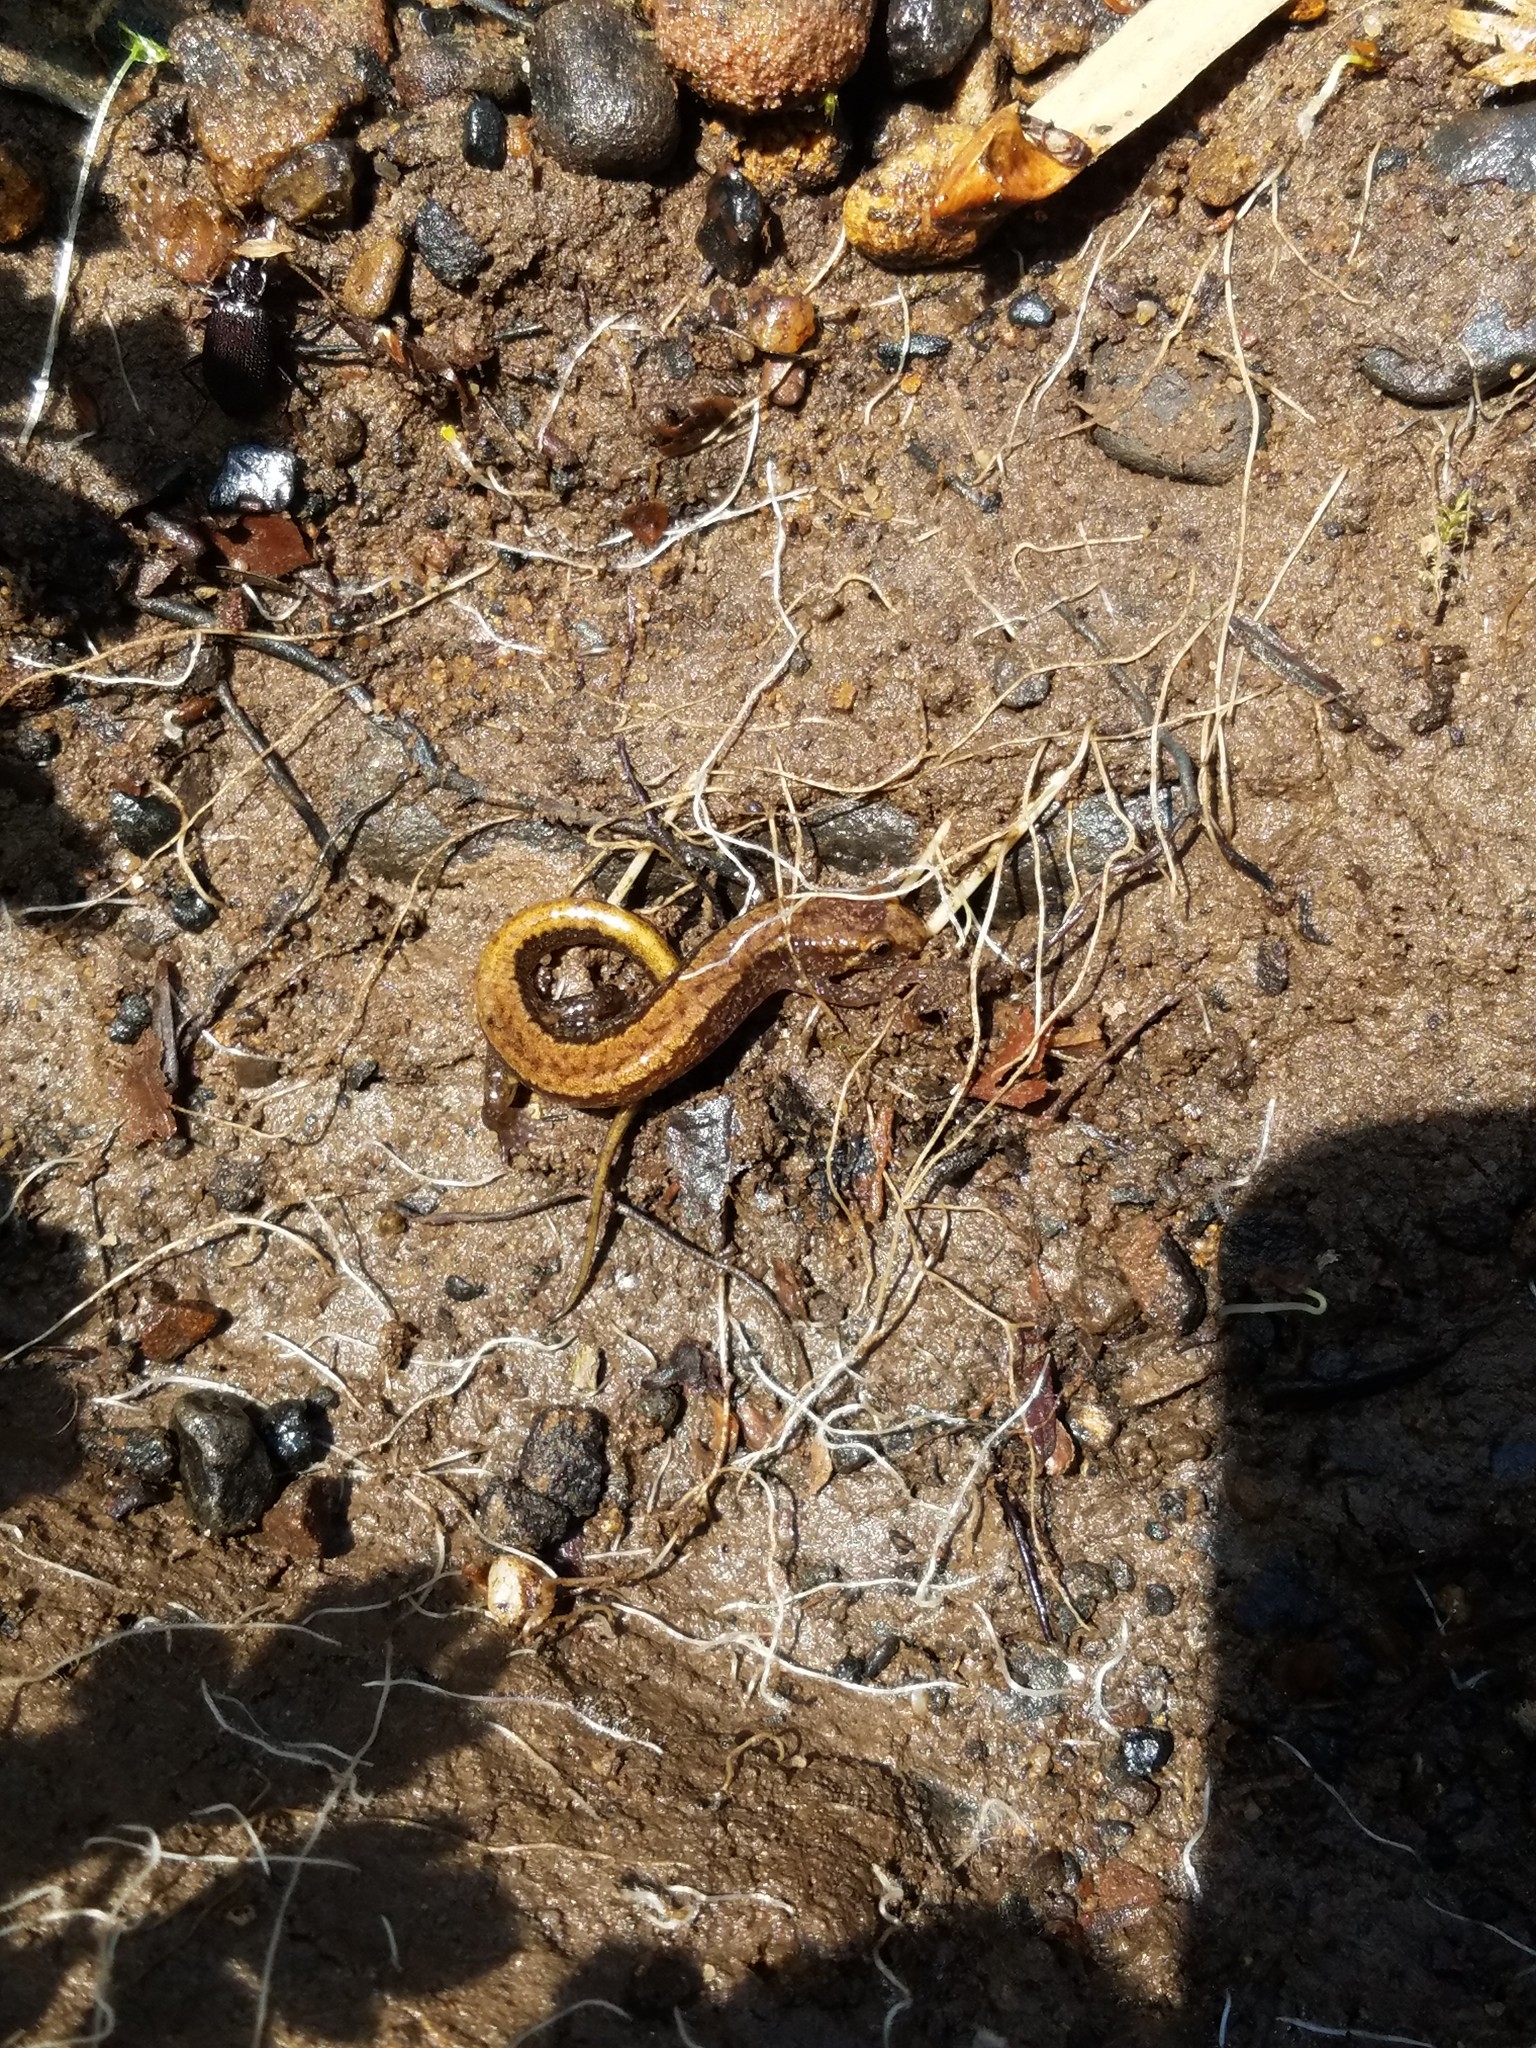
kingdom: Animalia
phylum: Chordata
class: Amphibia
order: Caudata
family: Plethodontidae
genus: Desmognathus
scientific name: Desmognathus ochrophaeus
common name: Allegheny mountain dusky salamander
